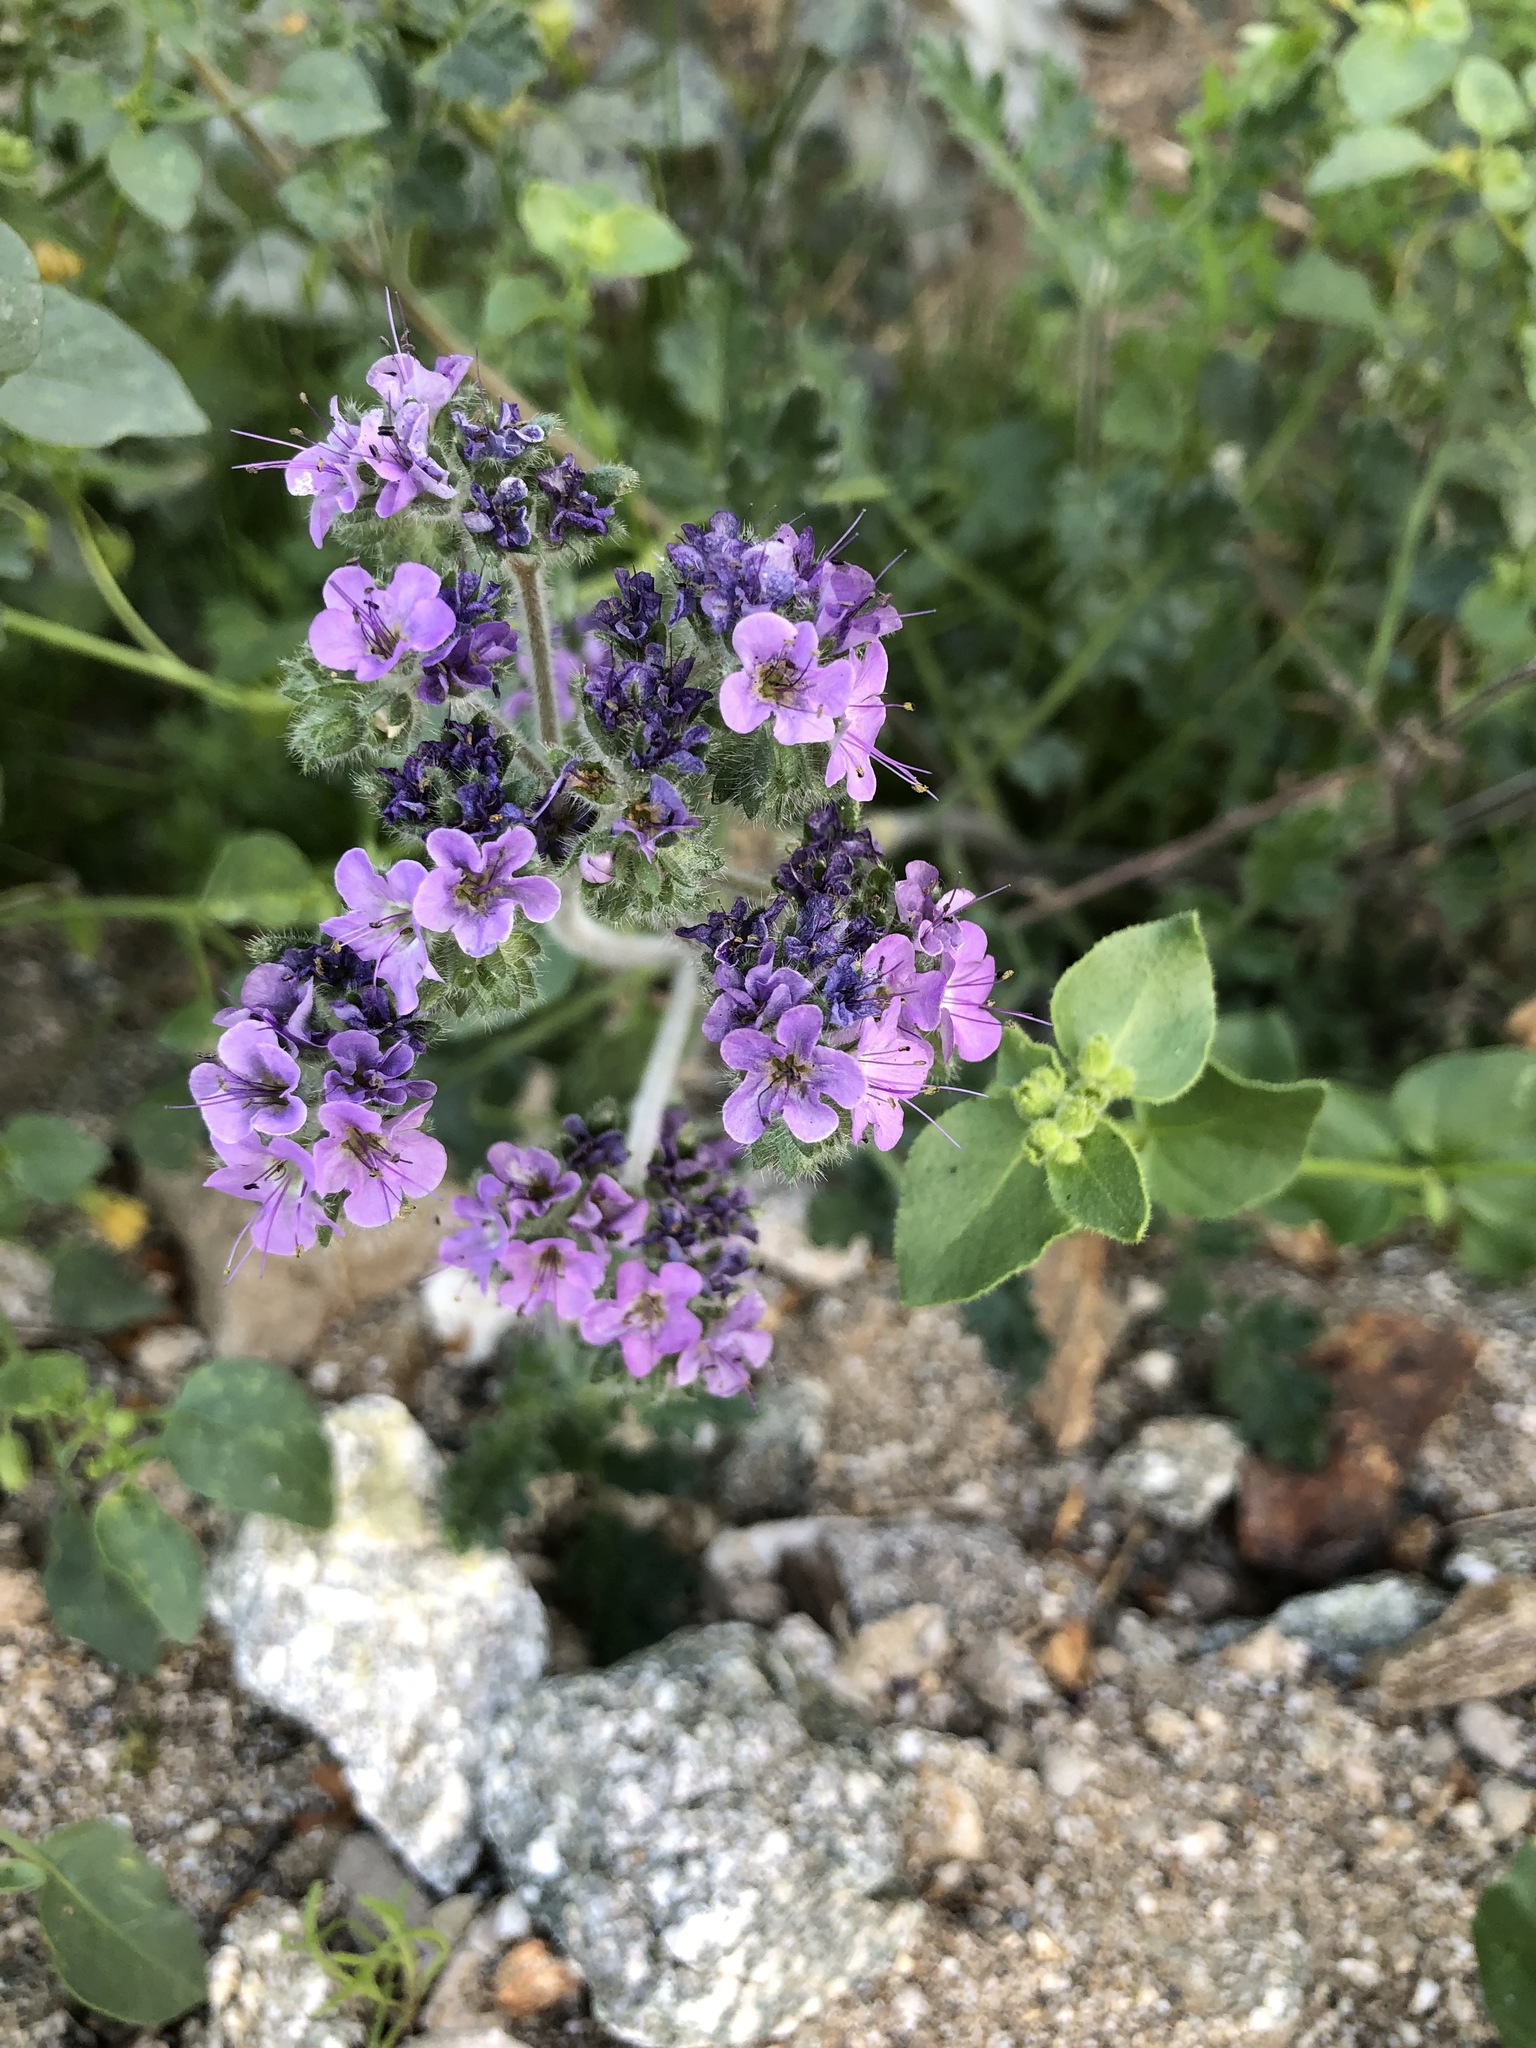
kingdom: Plantae
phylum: Tracheophyta
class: Magnoliopsida
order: Boraginales
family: Hydrophyllaceae
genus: Phacelia
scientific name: Phacelia crenulata
